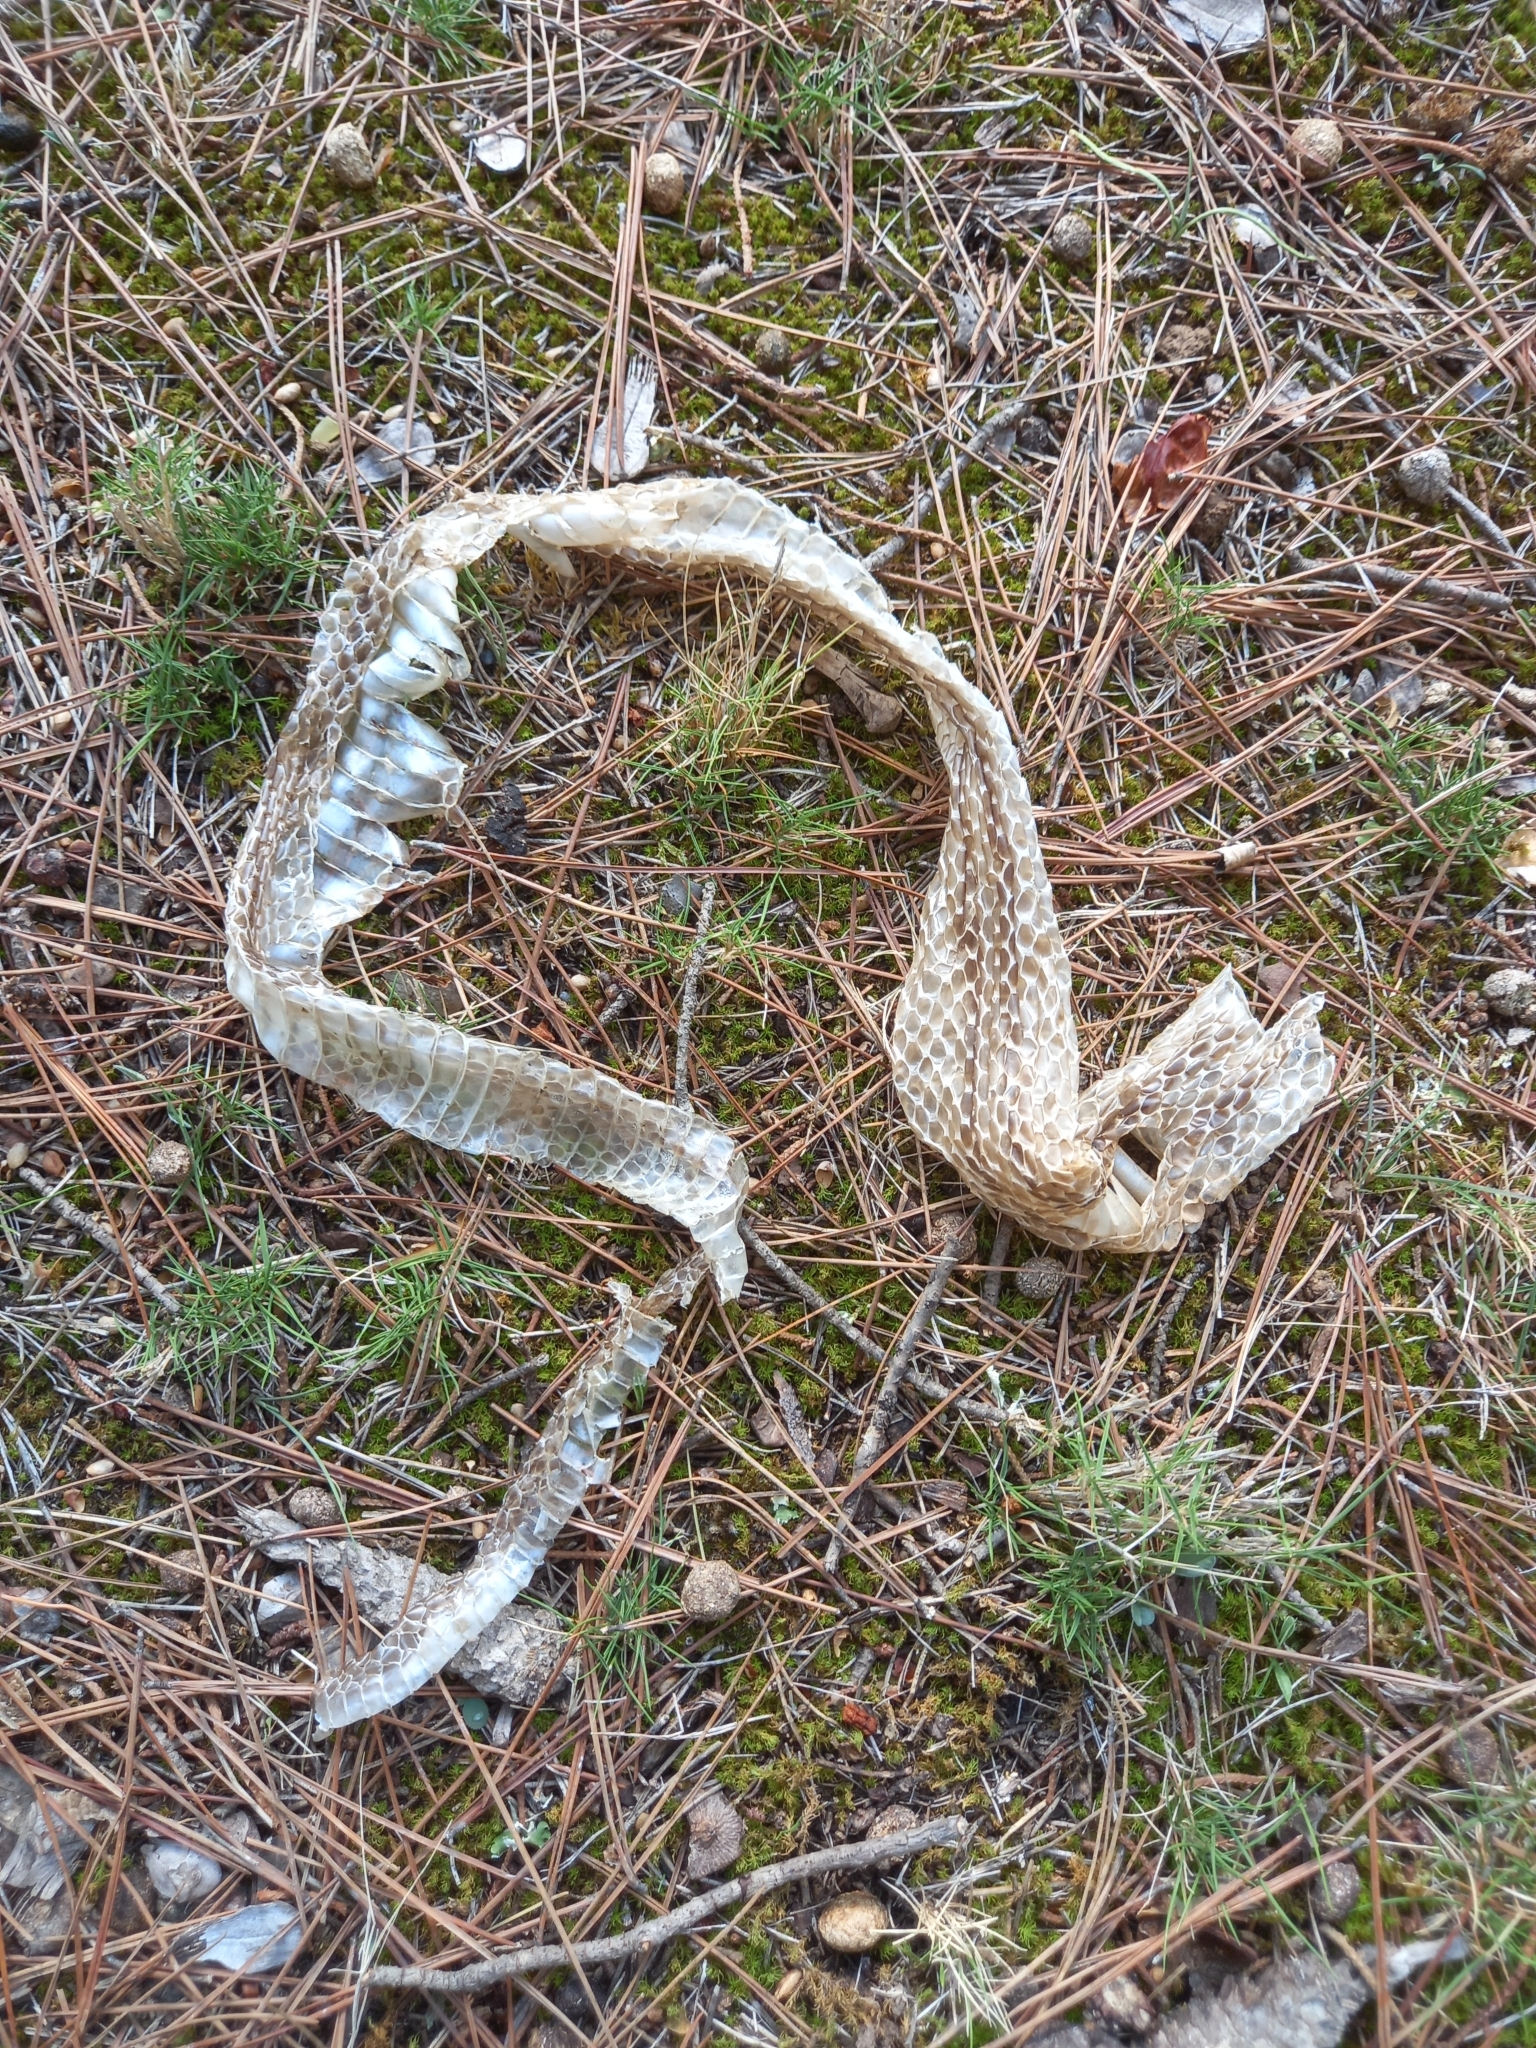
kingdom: Animalia
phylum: Chordata
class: Squamata
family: Colubridae
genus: Zamenis
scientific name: Zamenis scalaris
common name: Ladder snakes
